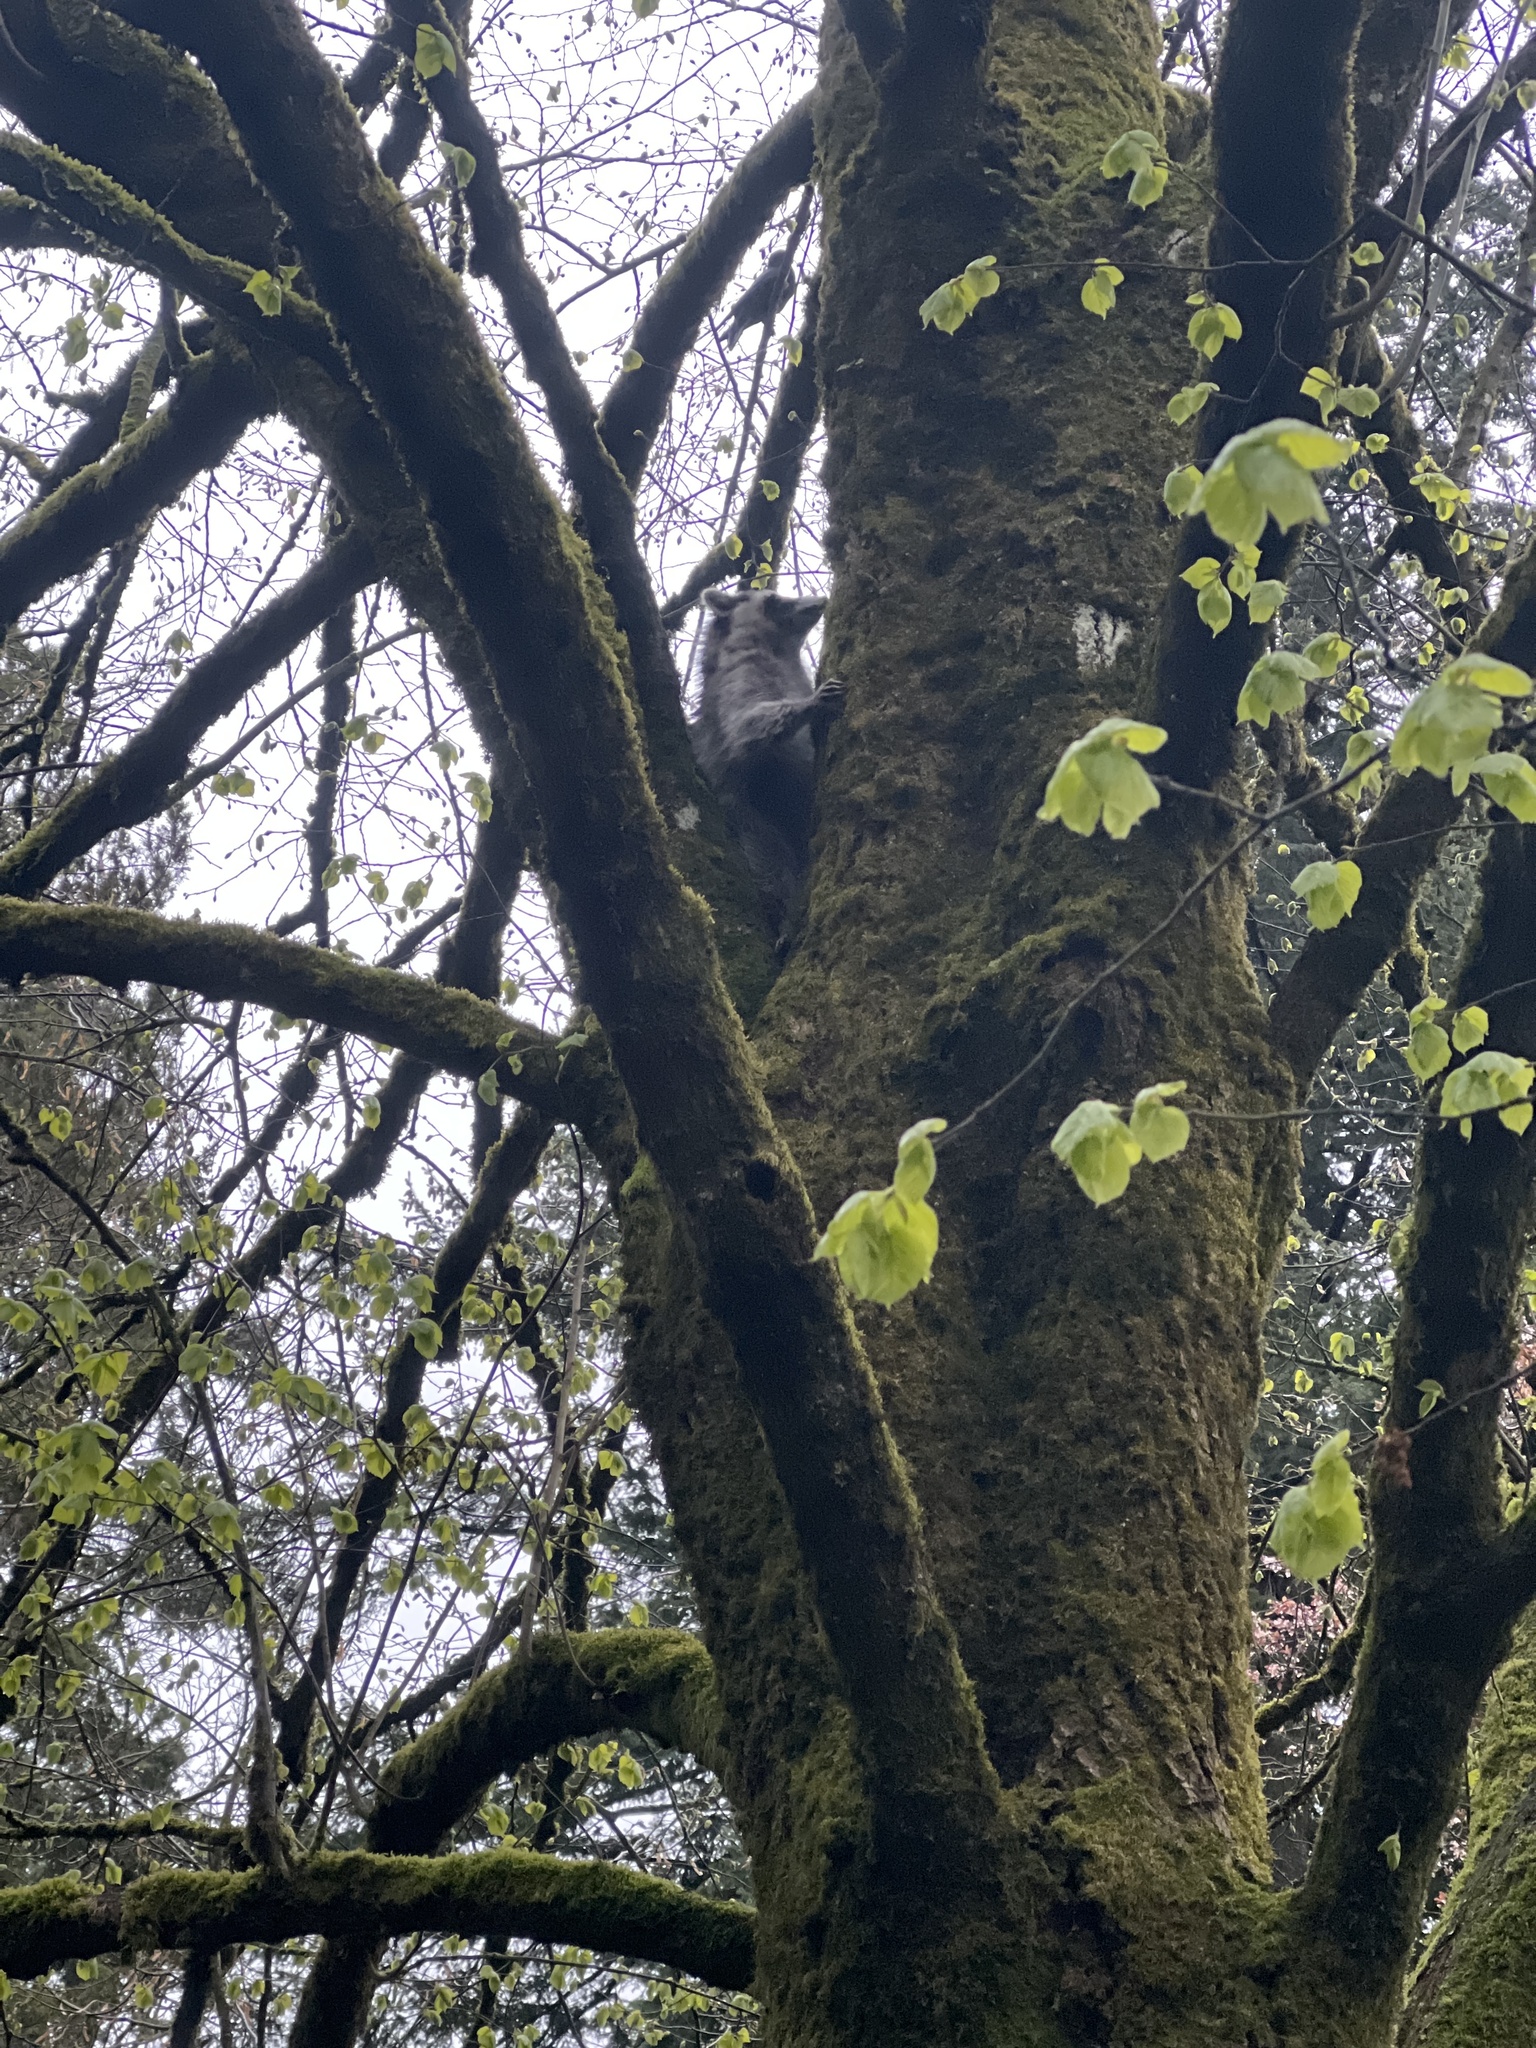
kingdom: Animalia
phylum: Chordata
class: Mammalia
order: Carnivora
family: Procyonidae
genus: Procyon
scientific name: Procyon lotor
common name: Raccoon
